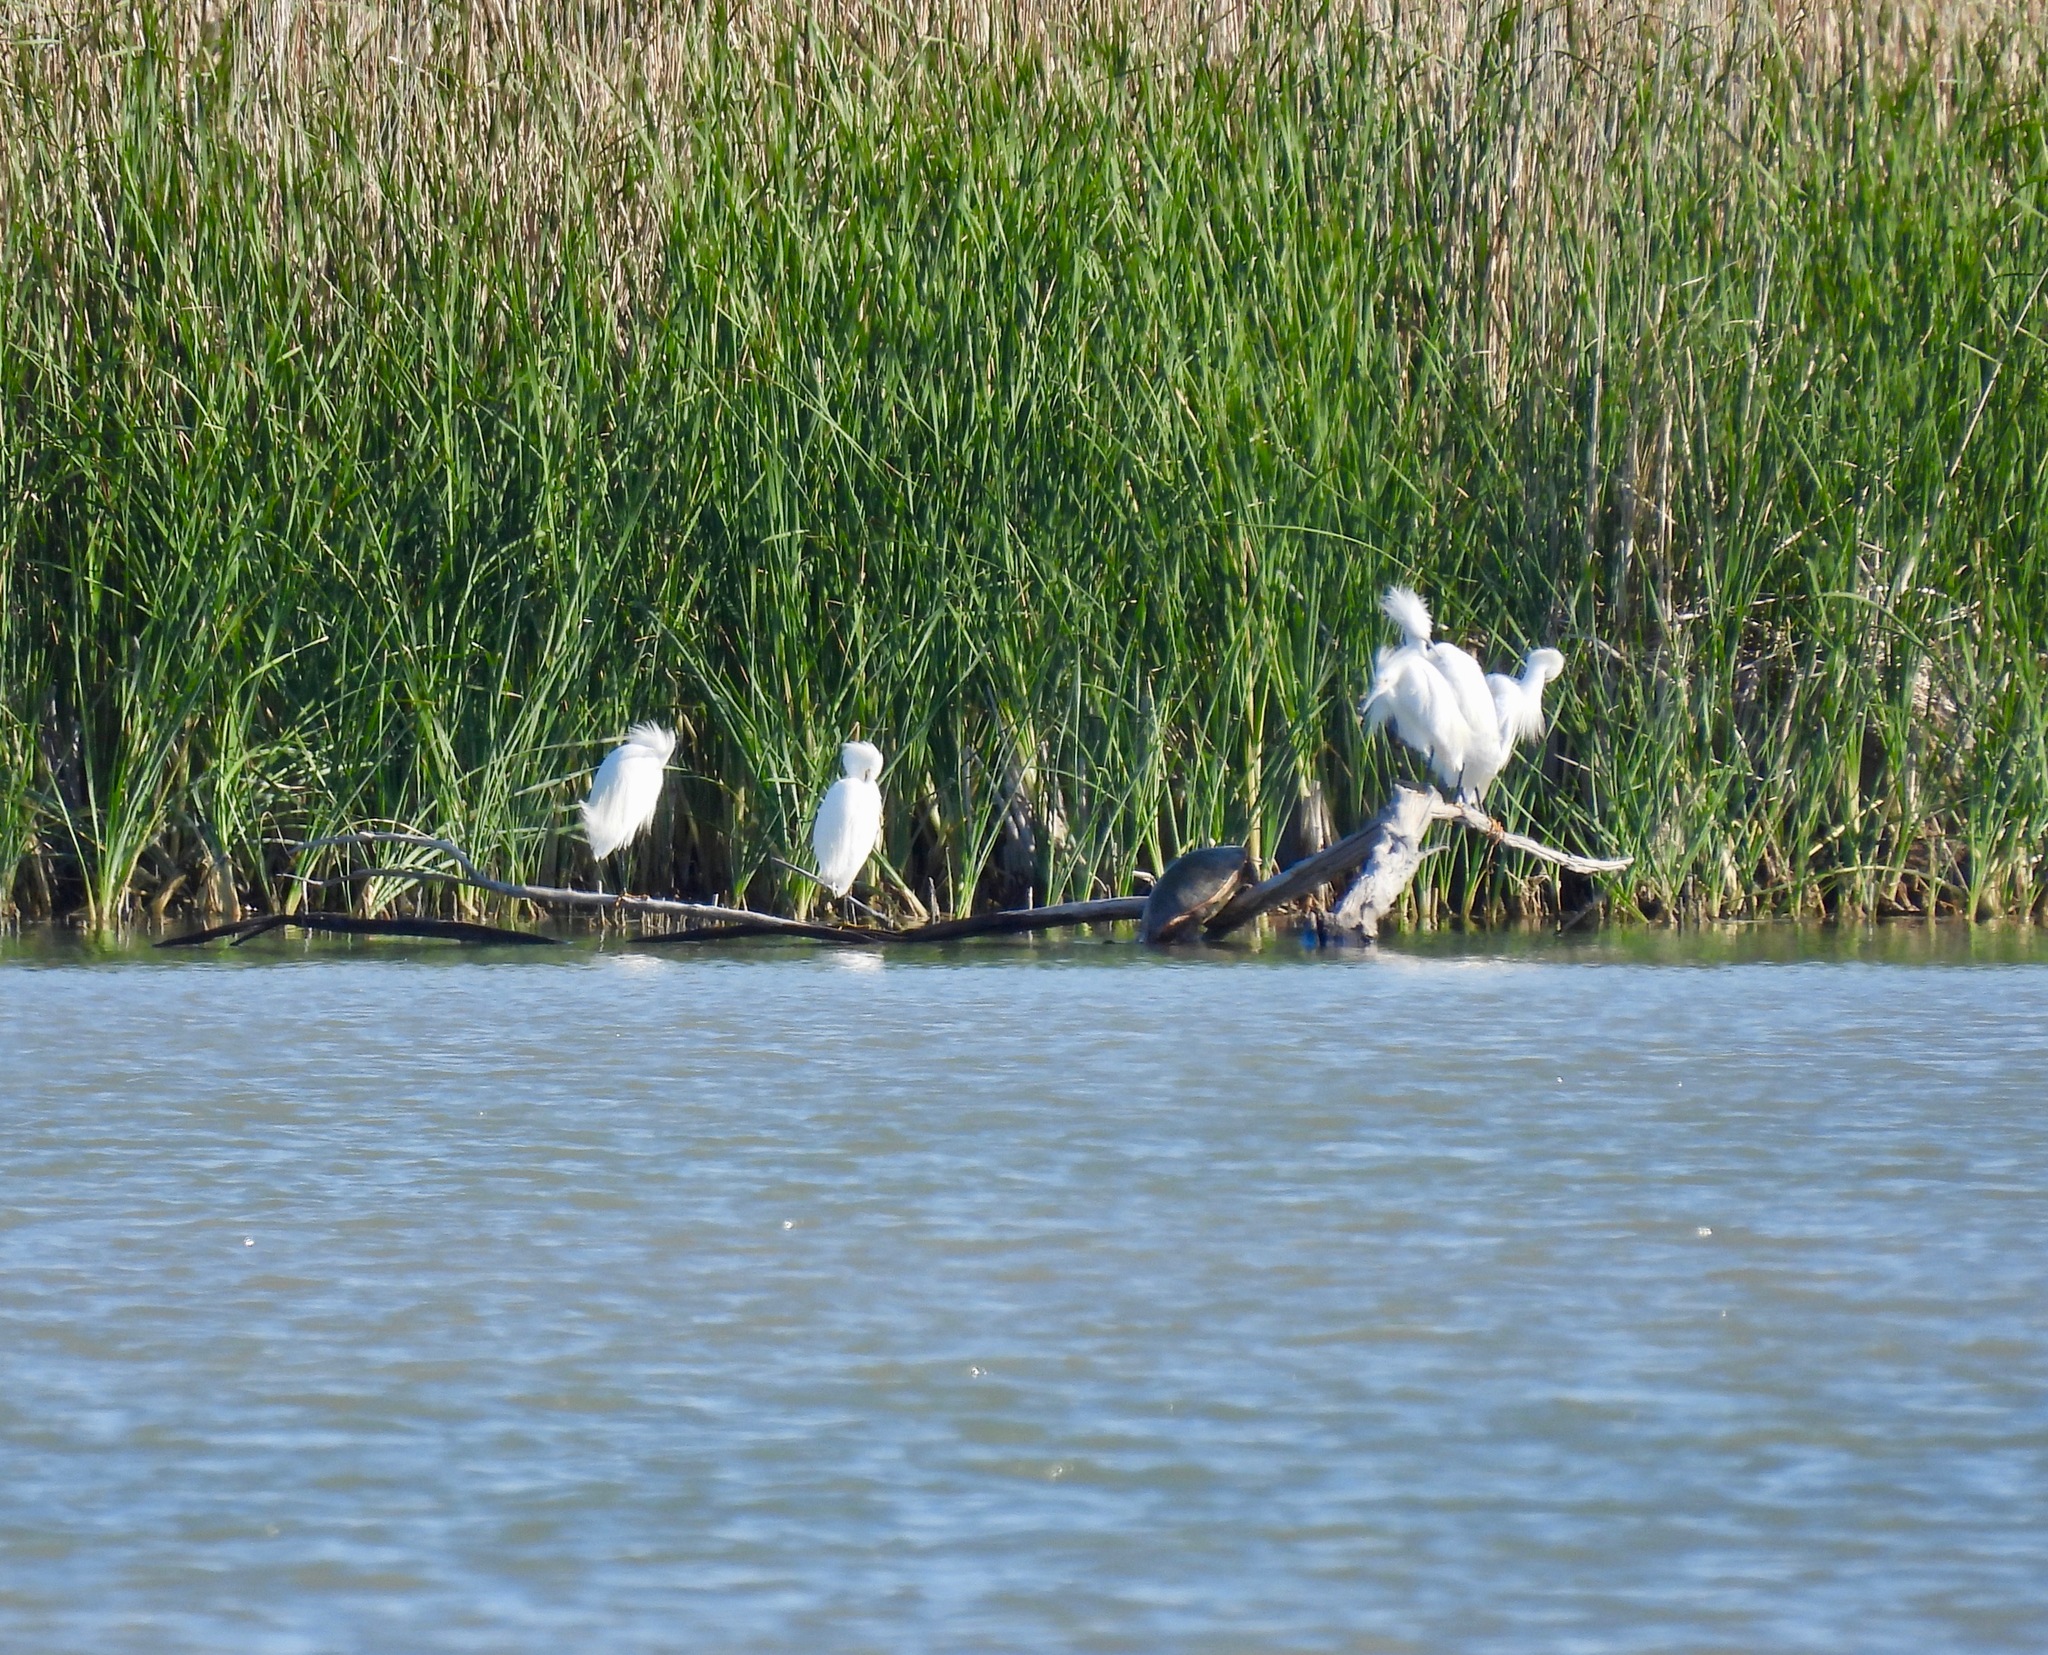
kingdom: Animalia
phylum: Chordata
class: Aves
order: Pelecaniformes
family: Ardeidae
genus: Egretta
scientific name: Egretta thula
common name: Snowy egret
